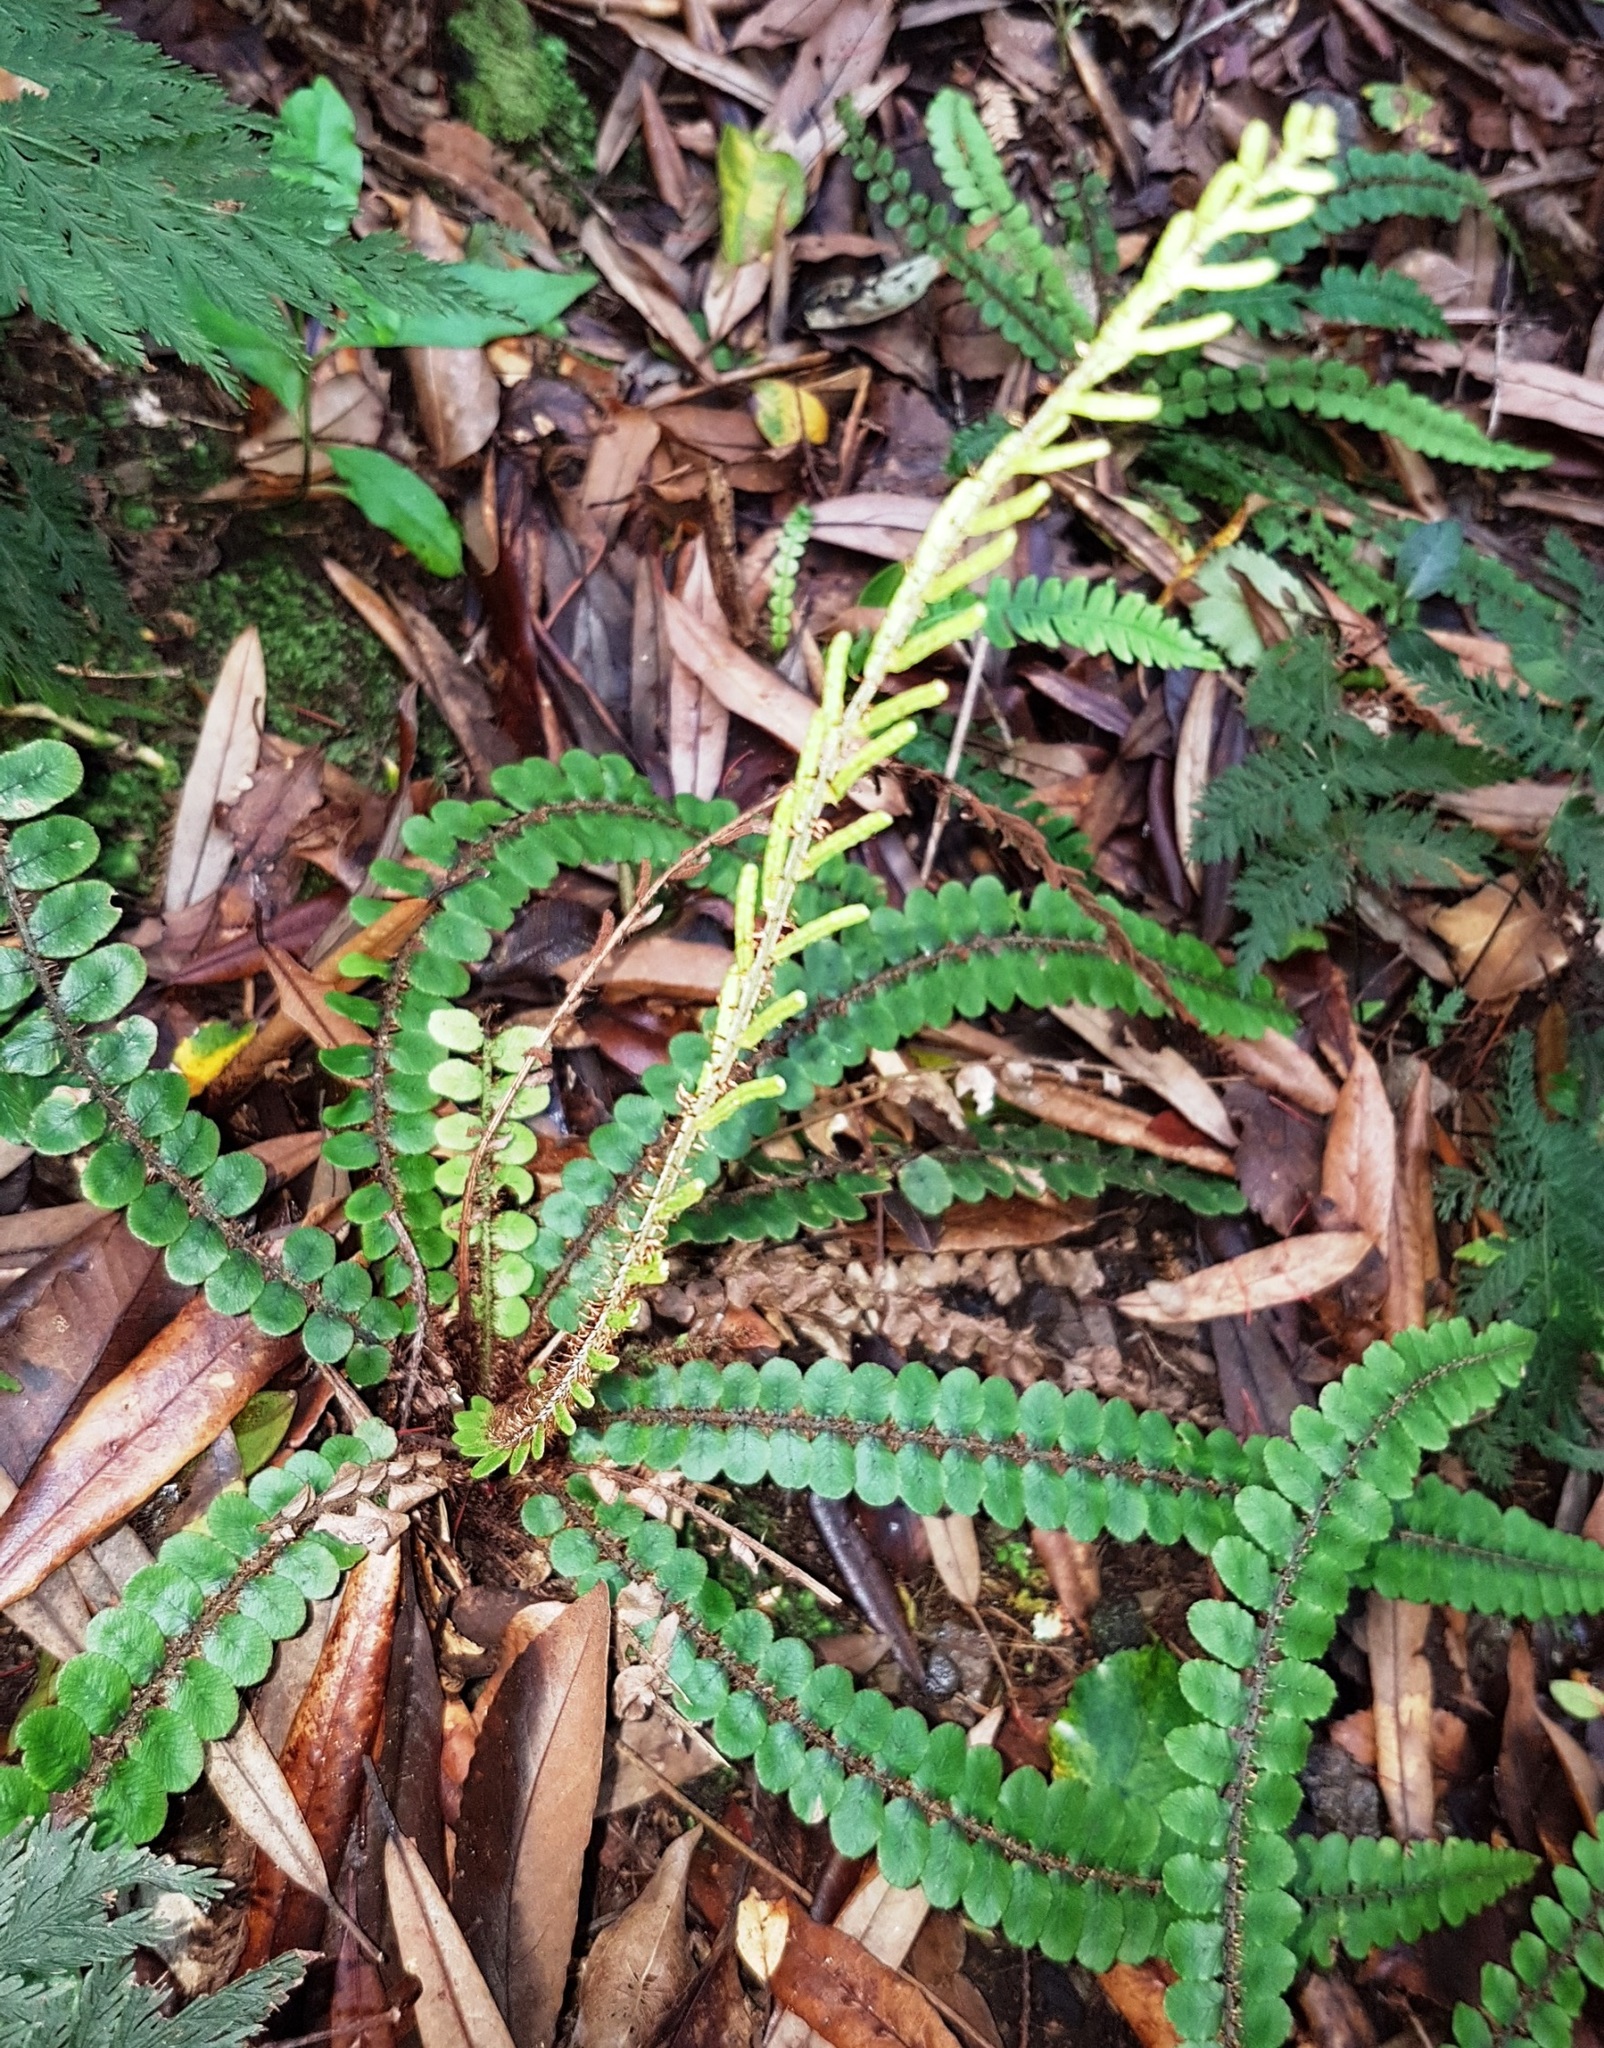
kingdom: Plantae
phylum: Tracheophyta
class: Polypodiopsida
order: Polypodiales
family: Blechnaceae
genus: Cranfillia
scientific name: Cranfillia fluviatilis
